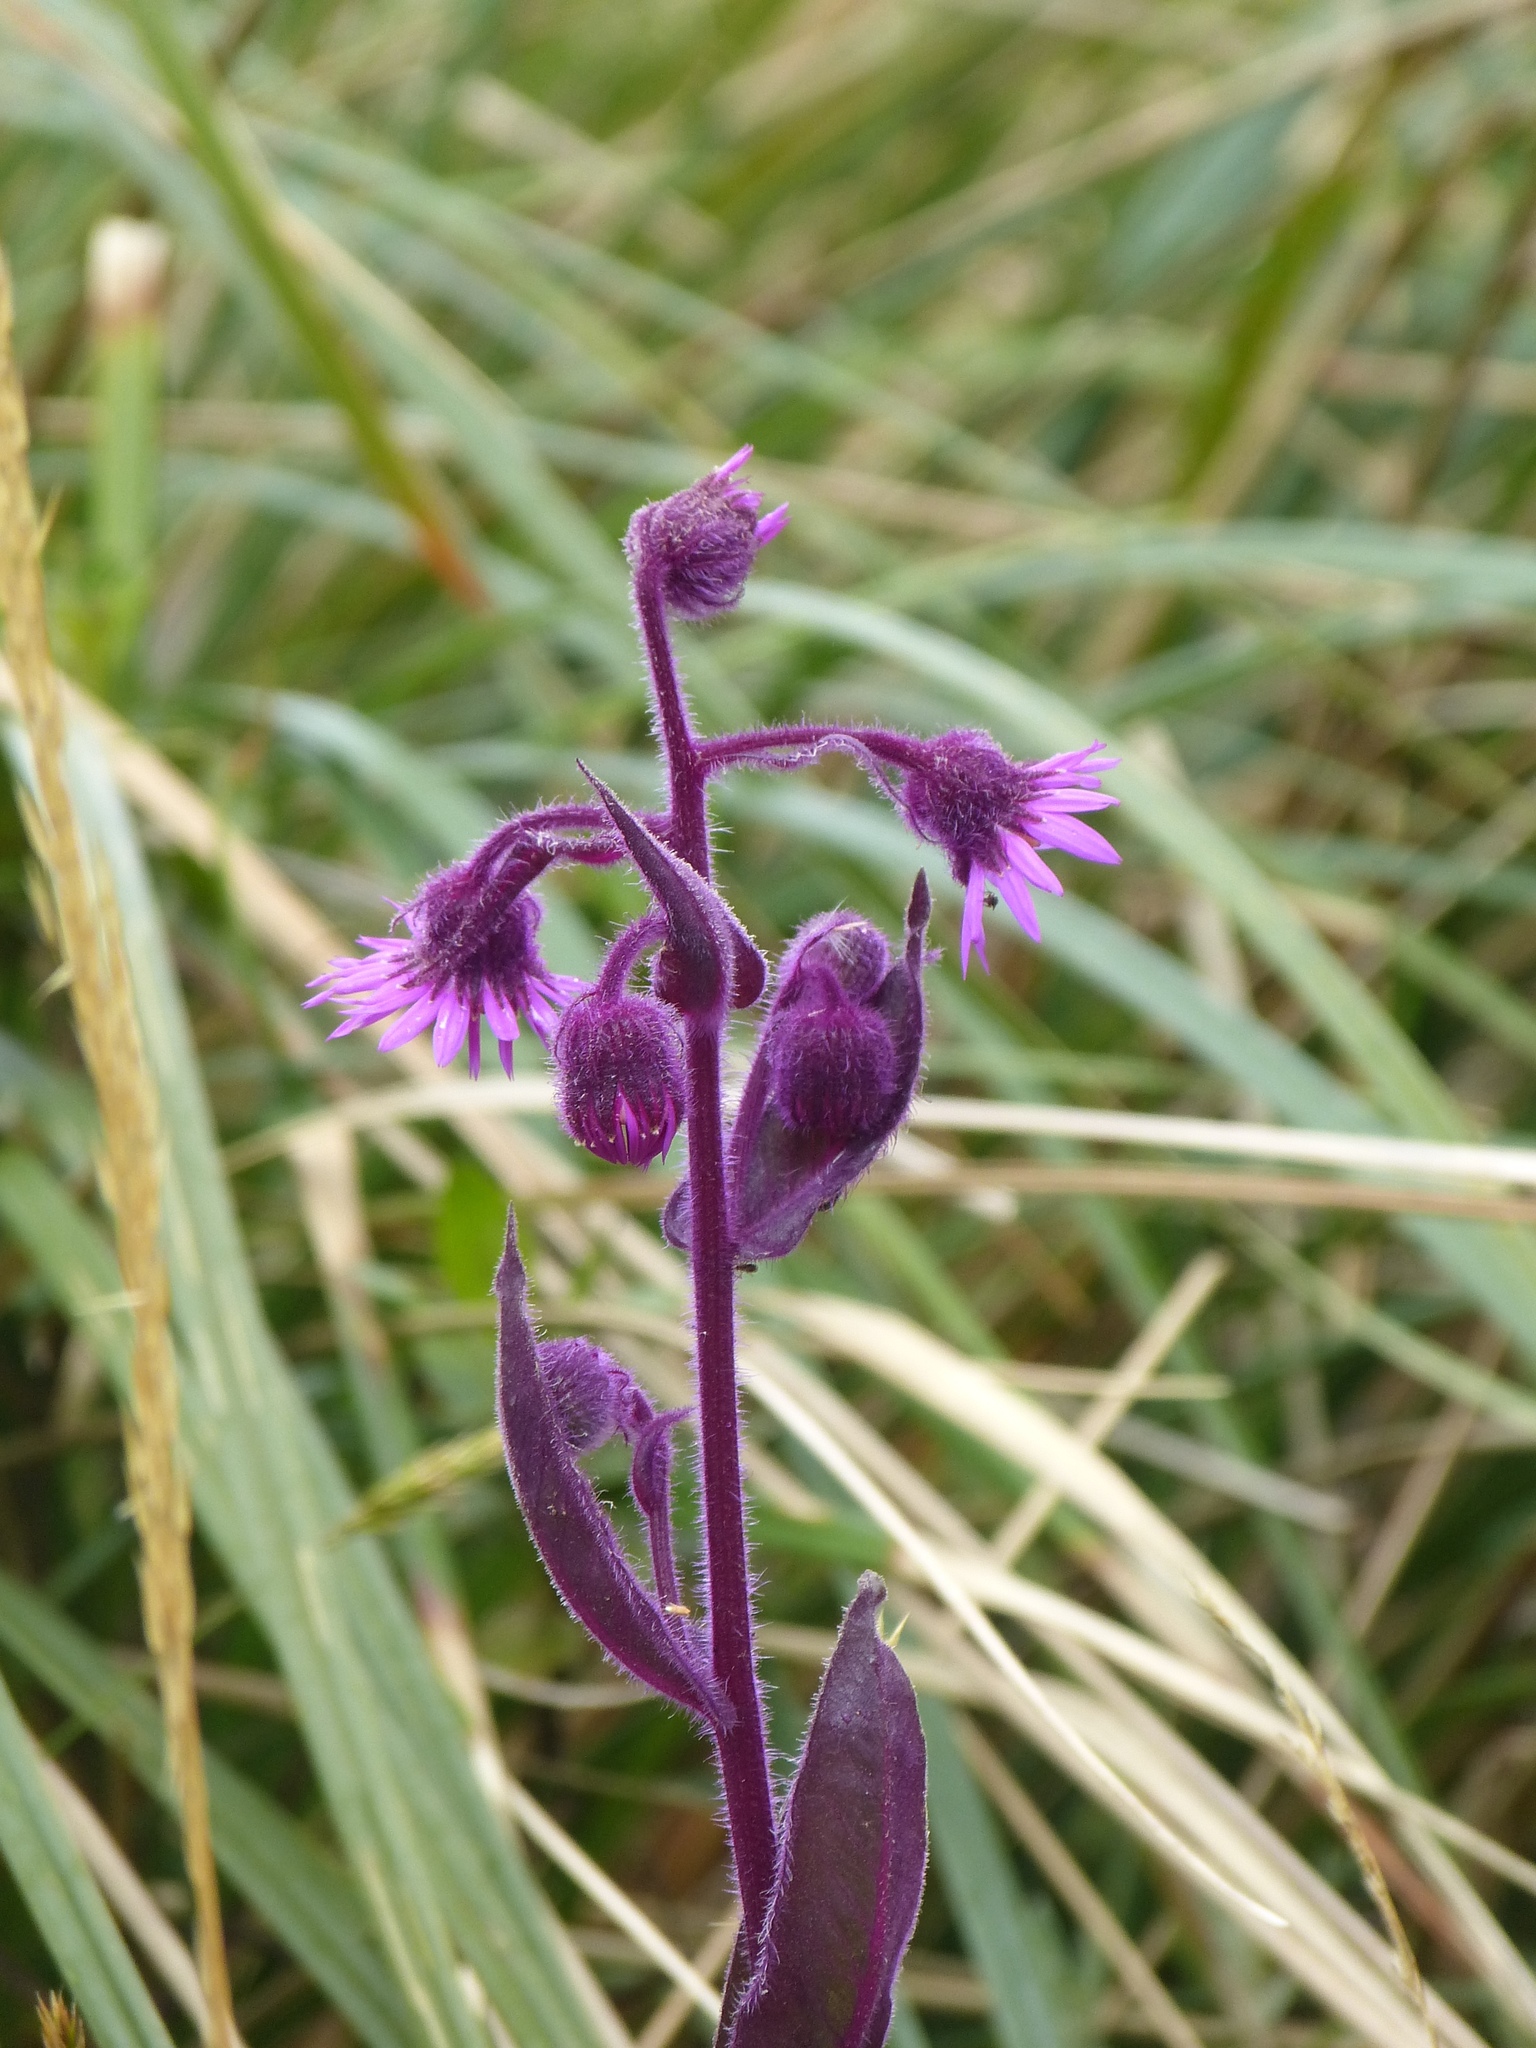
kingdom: Plantae
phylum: Tracheophyta
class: Magnoliopsida
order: Asterales
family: Asteraceae
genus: Senecio
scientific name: Senecio formosus
